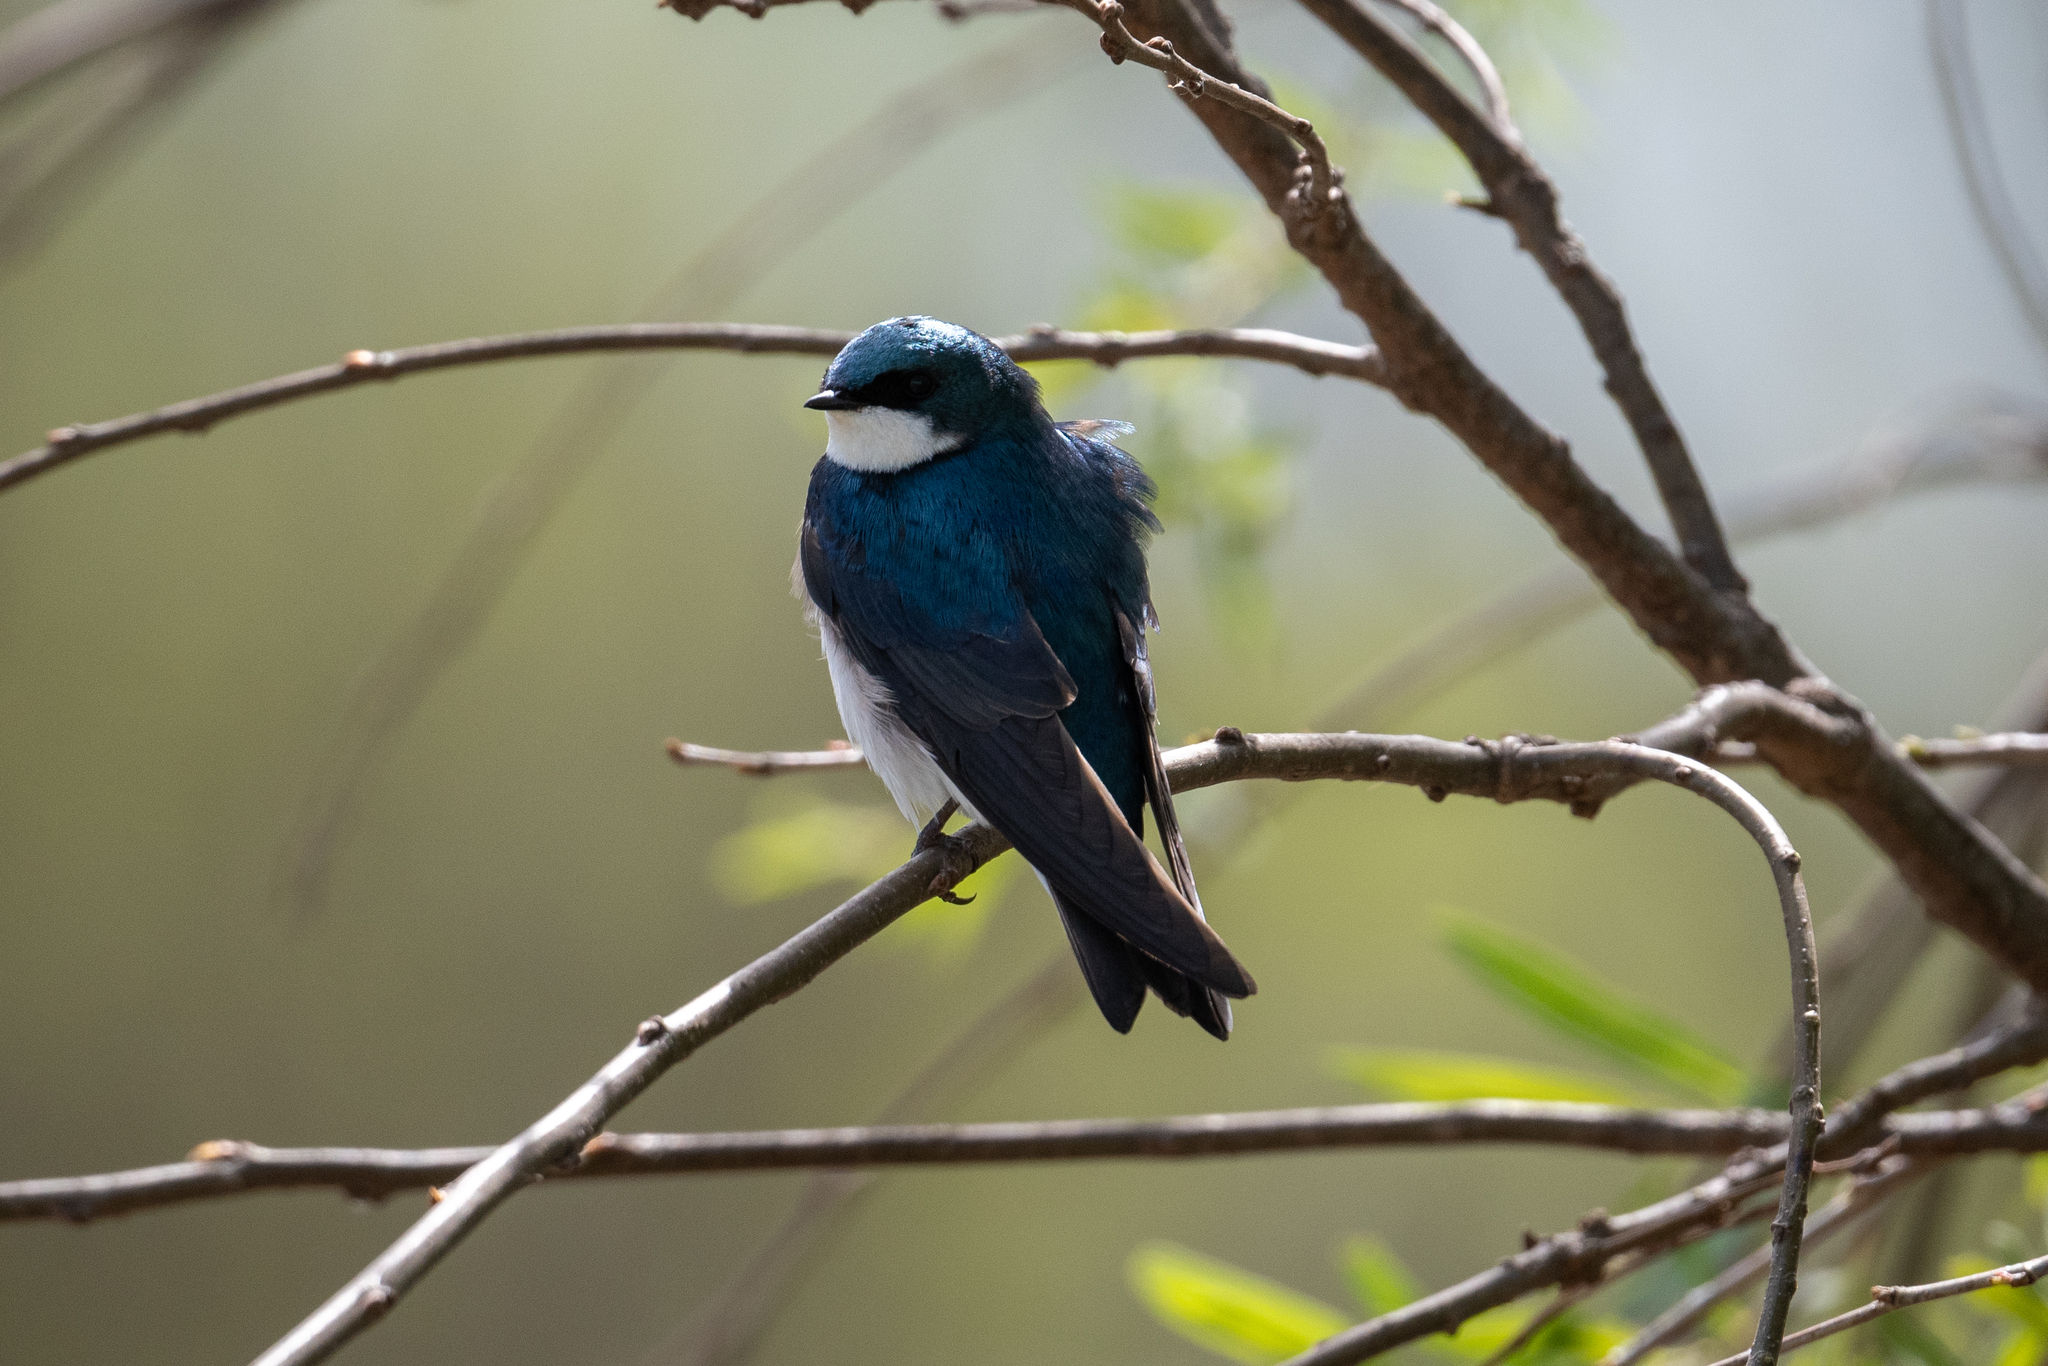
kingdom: Animalia
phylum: Chordata
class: Aves
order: Passeriformes
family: Hirundinidae
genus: Tachycineta
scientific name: Tachycineta bicolor
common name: Tree swallow
